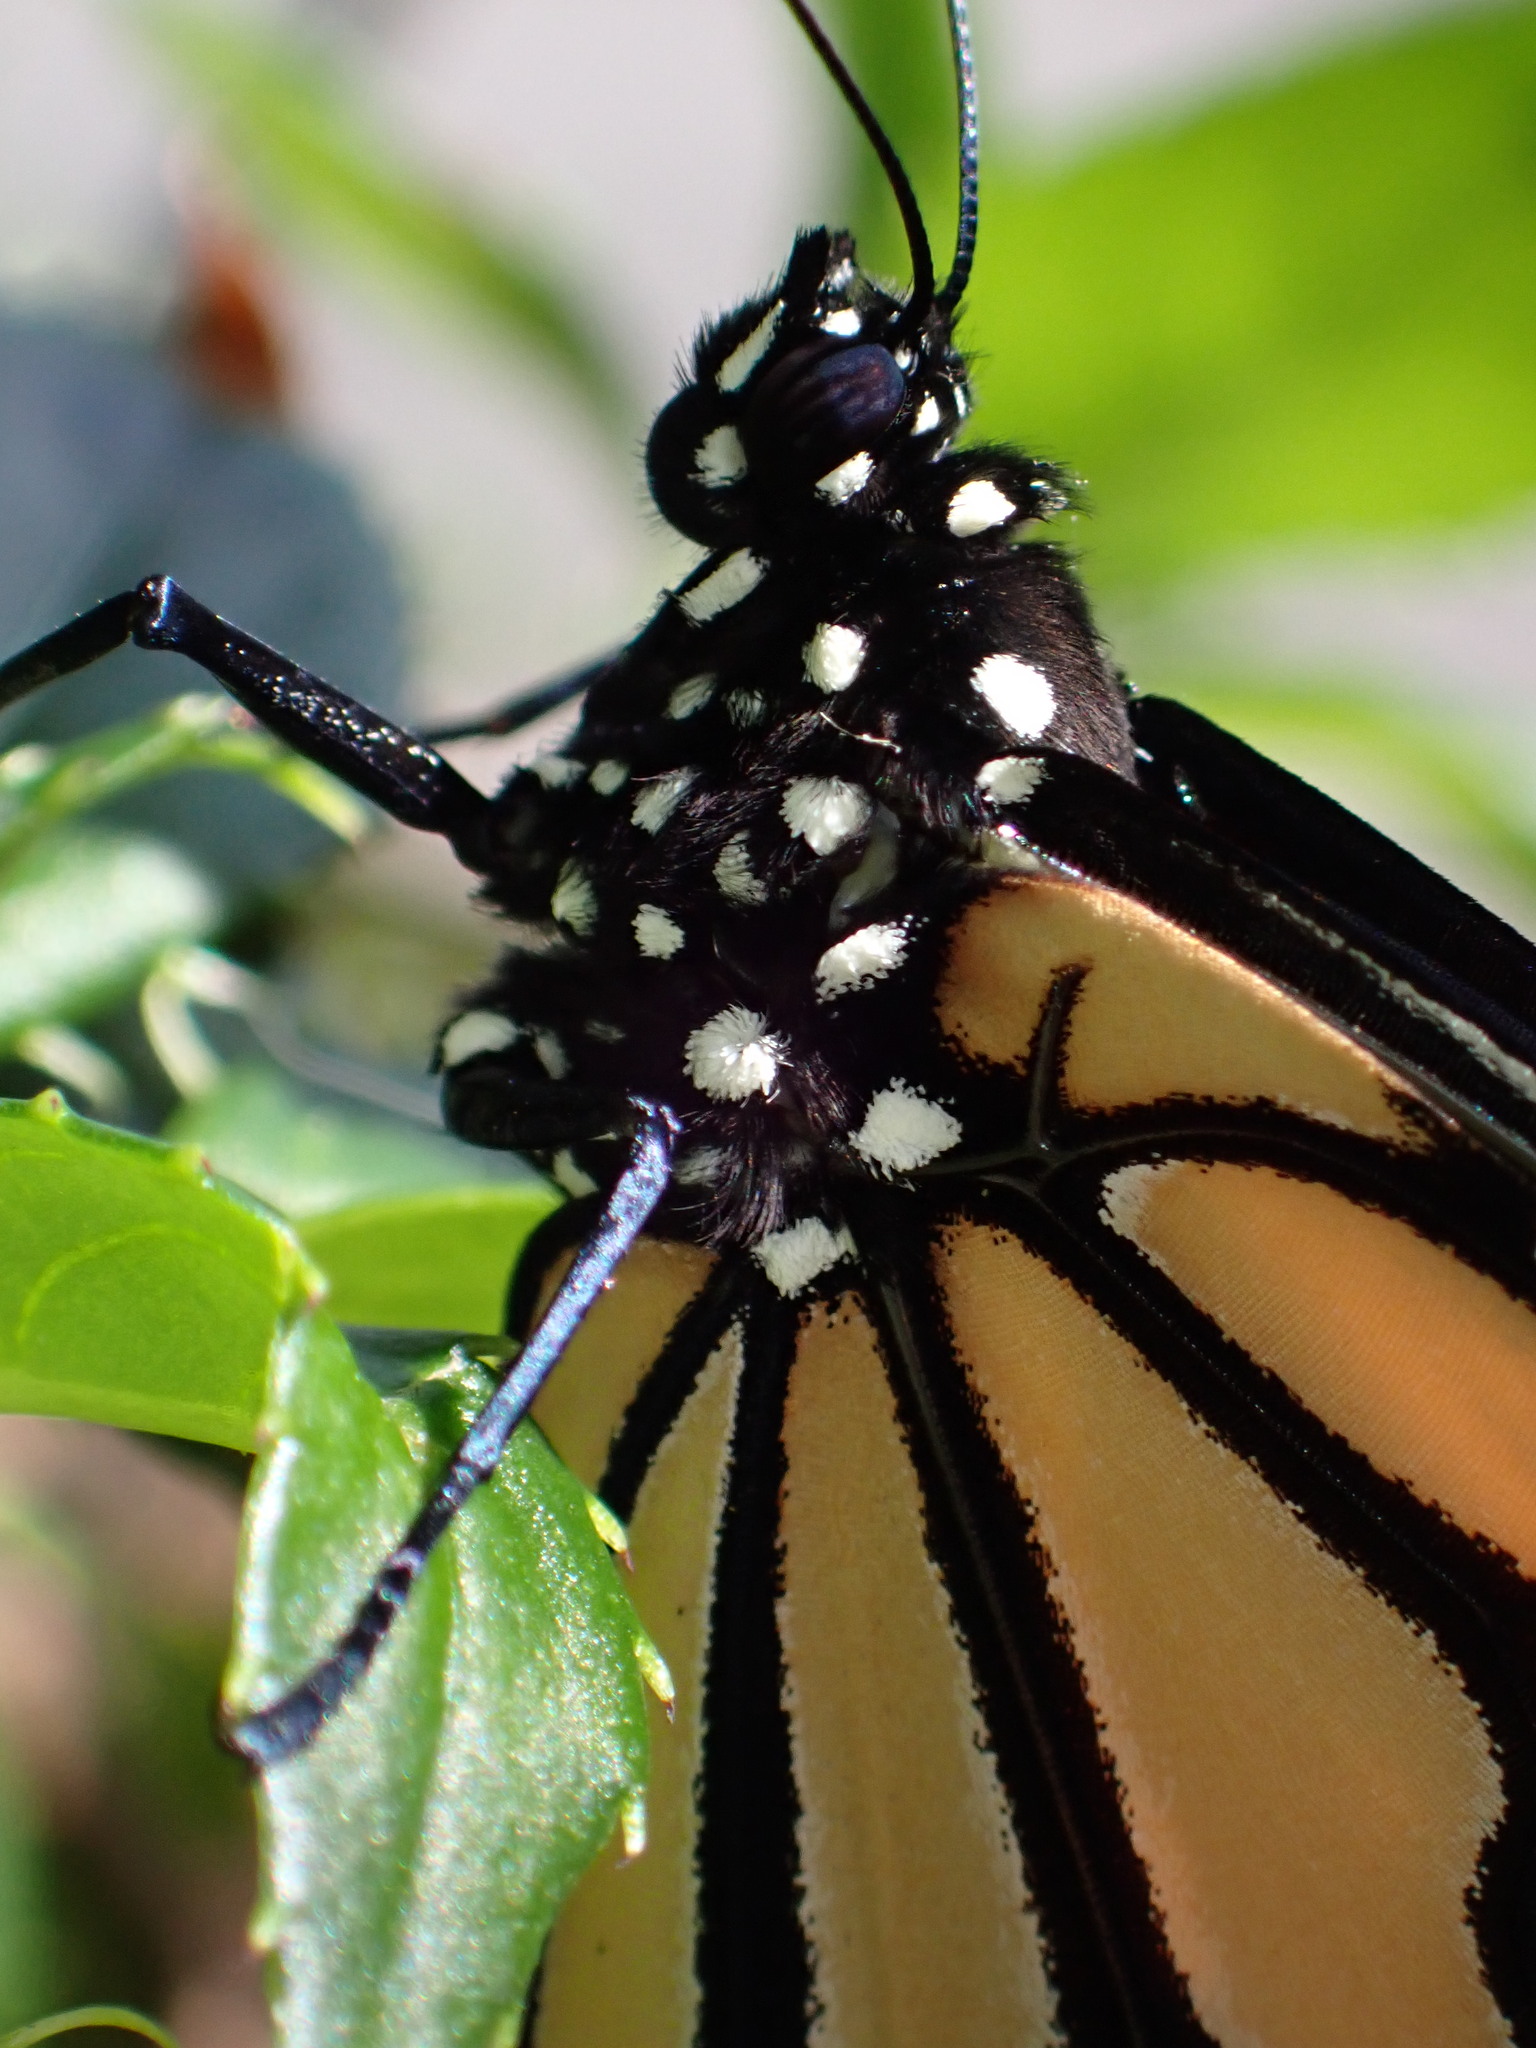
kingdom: Animalia
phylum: Arthropoda
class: Insecta
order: Lepidoptera
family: Nymphalidae
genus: Danaus
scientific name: Danaus plexippus
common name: Monarch
